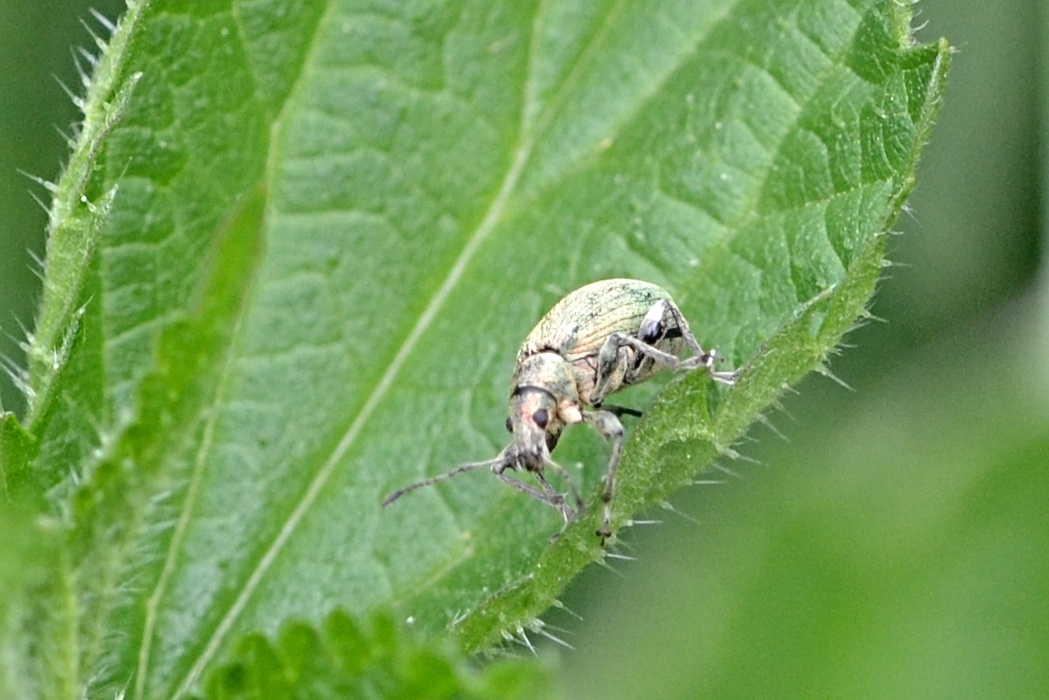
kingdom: Animalia
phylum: Arthropoda
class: Insecta
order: Coleoptera
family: Curculionidae
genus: Phyllobius
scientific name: Phyllobius pomaceus
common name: Green nettle weevil
